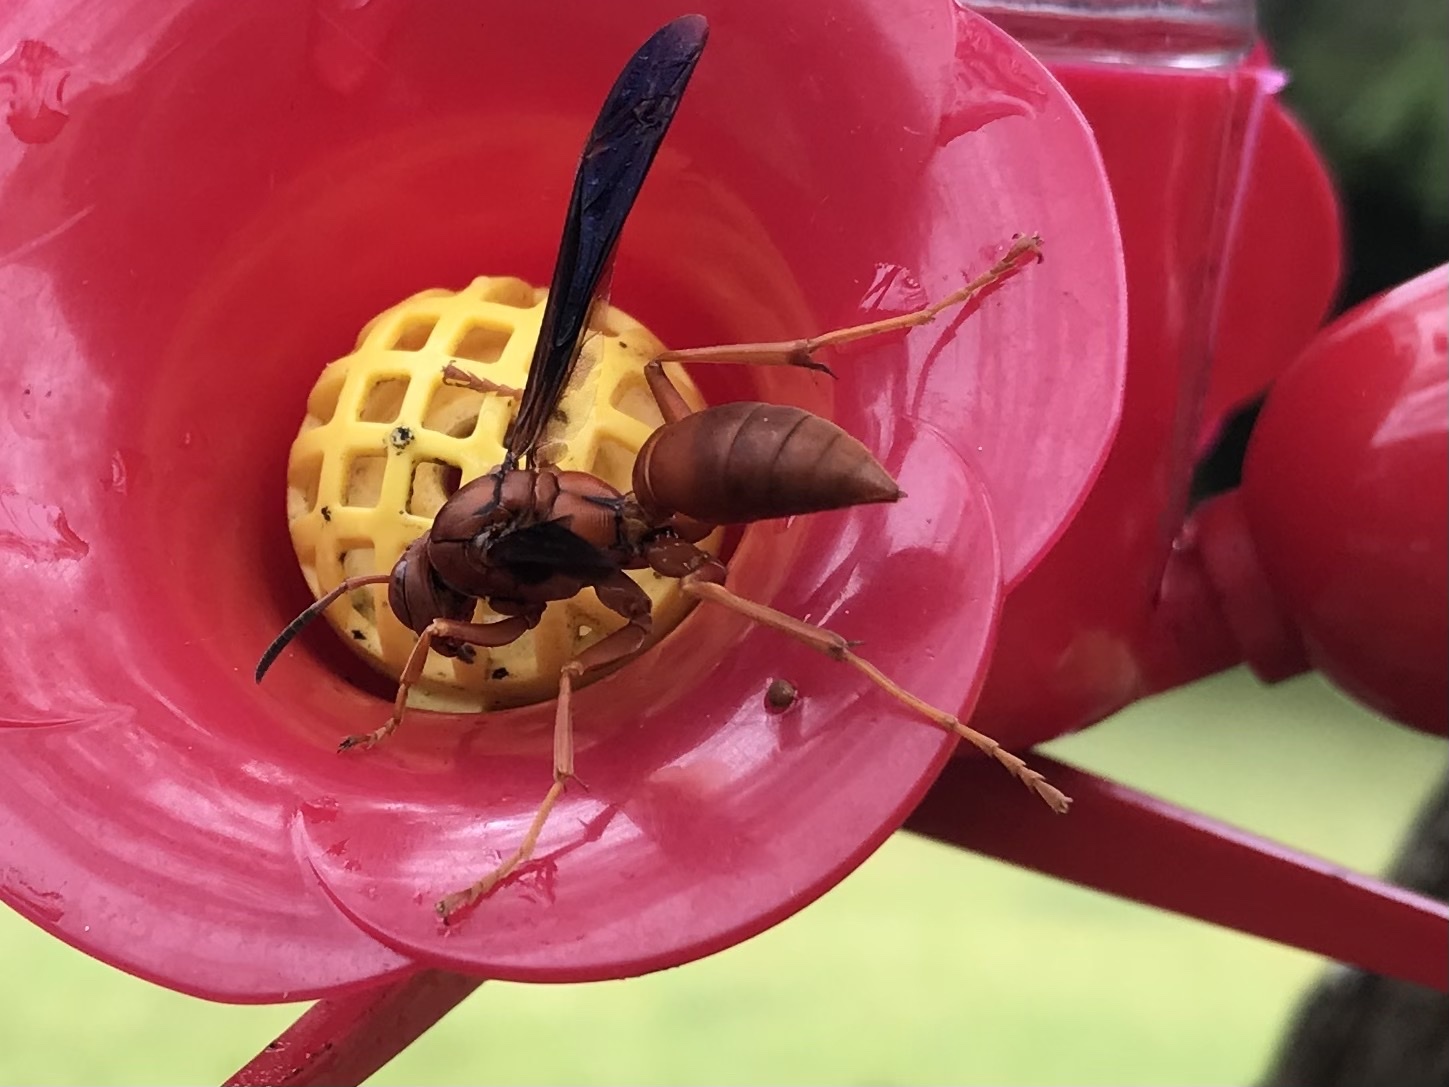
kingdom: Animalia
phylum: Arthropoda
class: Insecta
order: Hymenoptera
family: Eumenidae
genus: Polistes
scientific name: Polistes carolina
